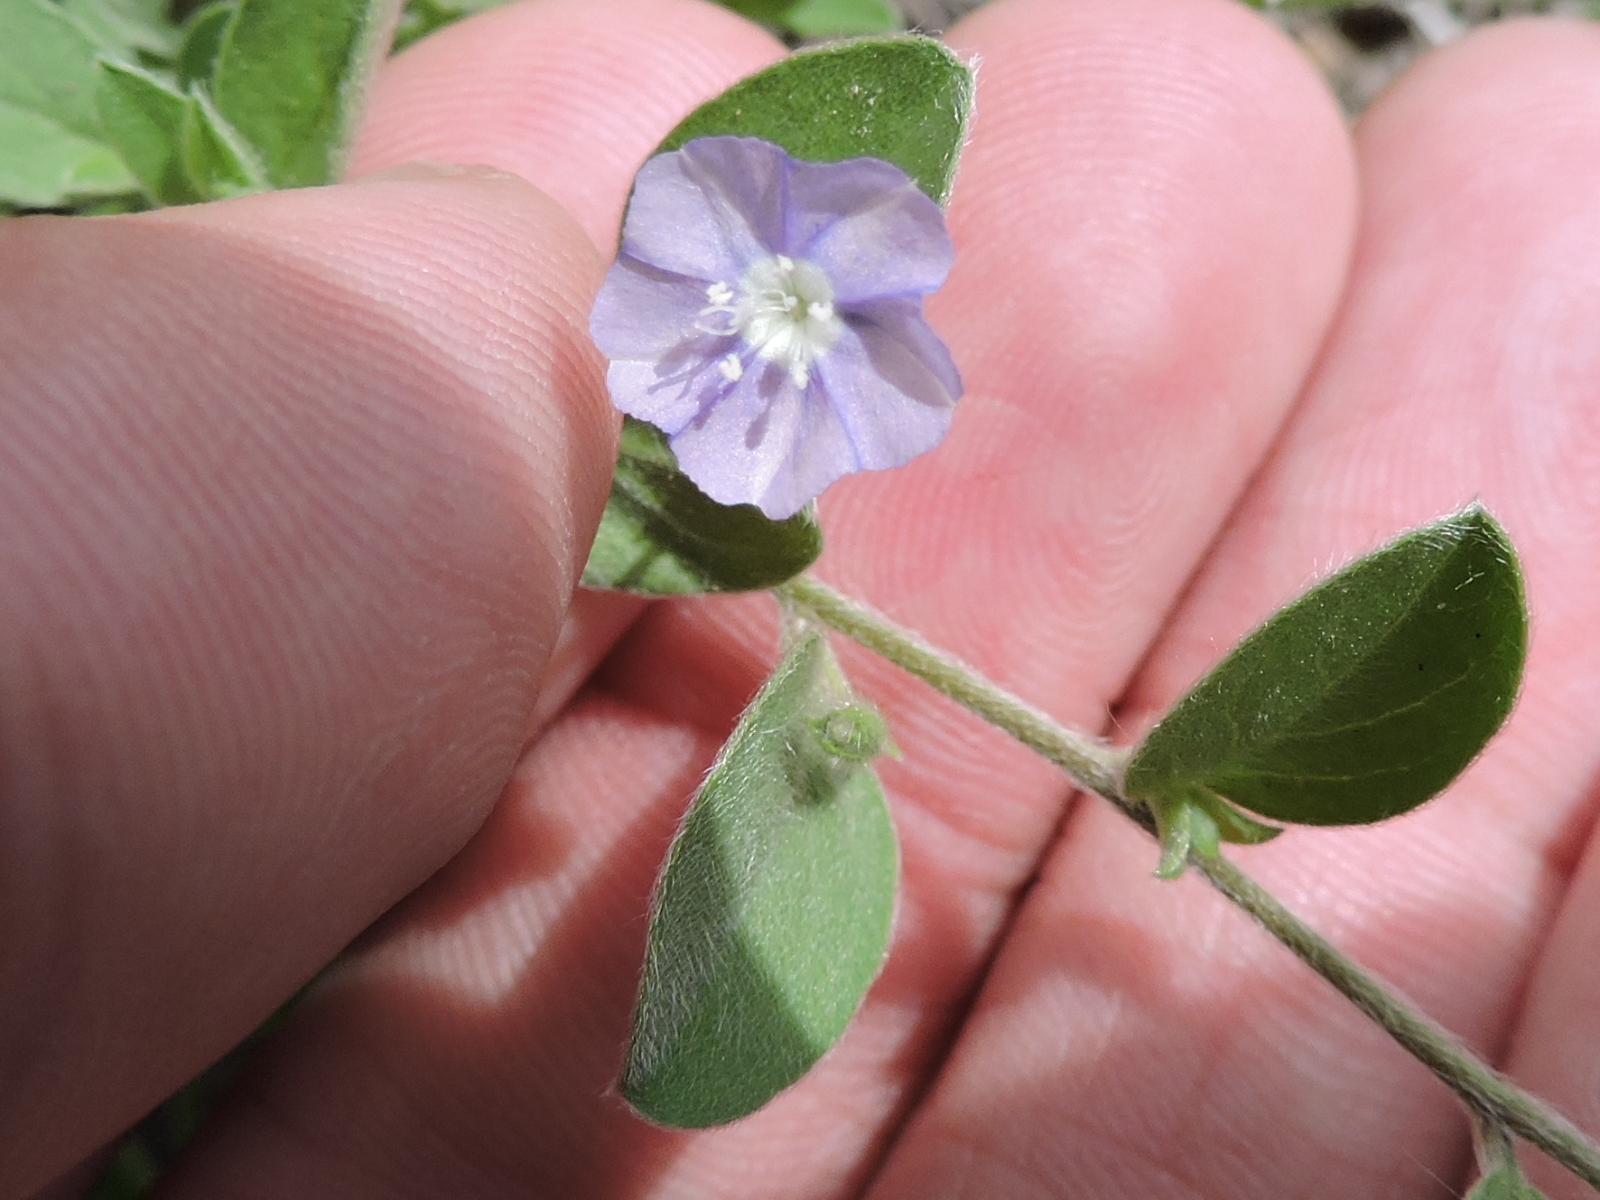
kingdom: Plantae
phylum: Tracheophyta
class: Magnoliopsida
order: Solanales
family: Convolvulaceae
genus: Evolvulus
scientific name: Evolvulus alsinoides
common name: Slender dwarf morning-glory
